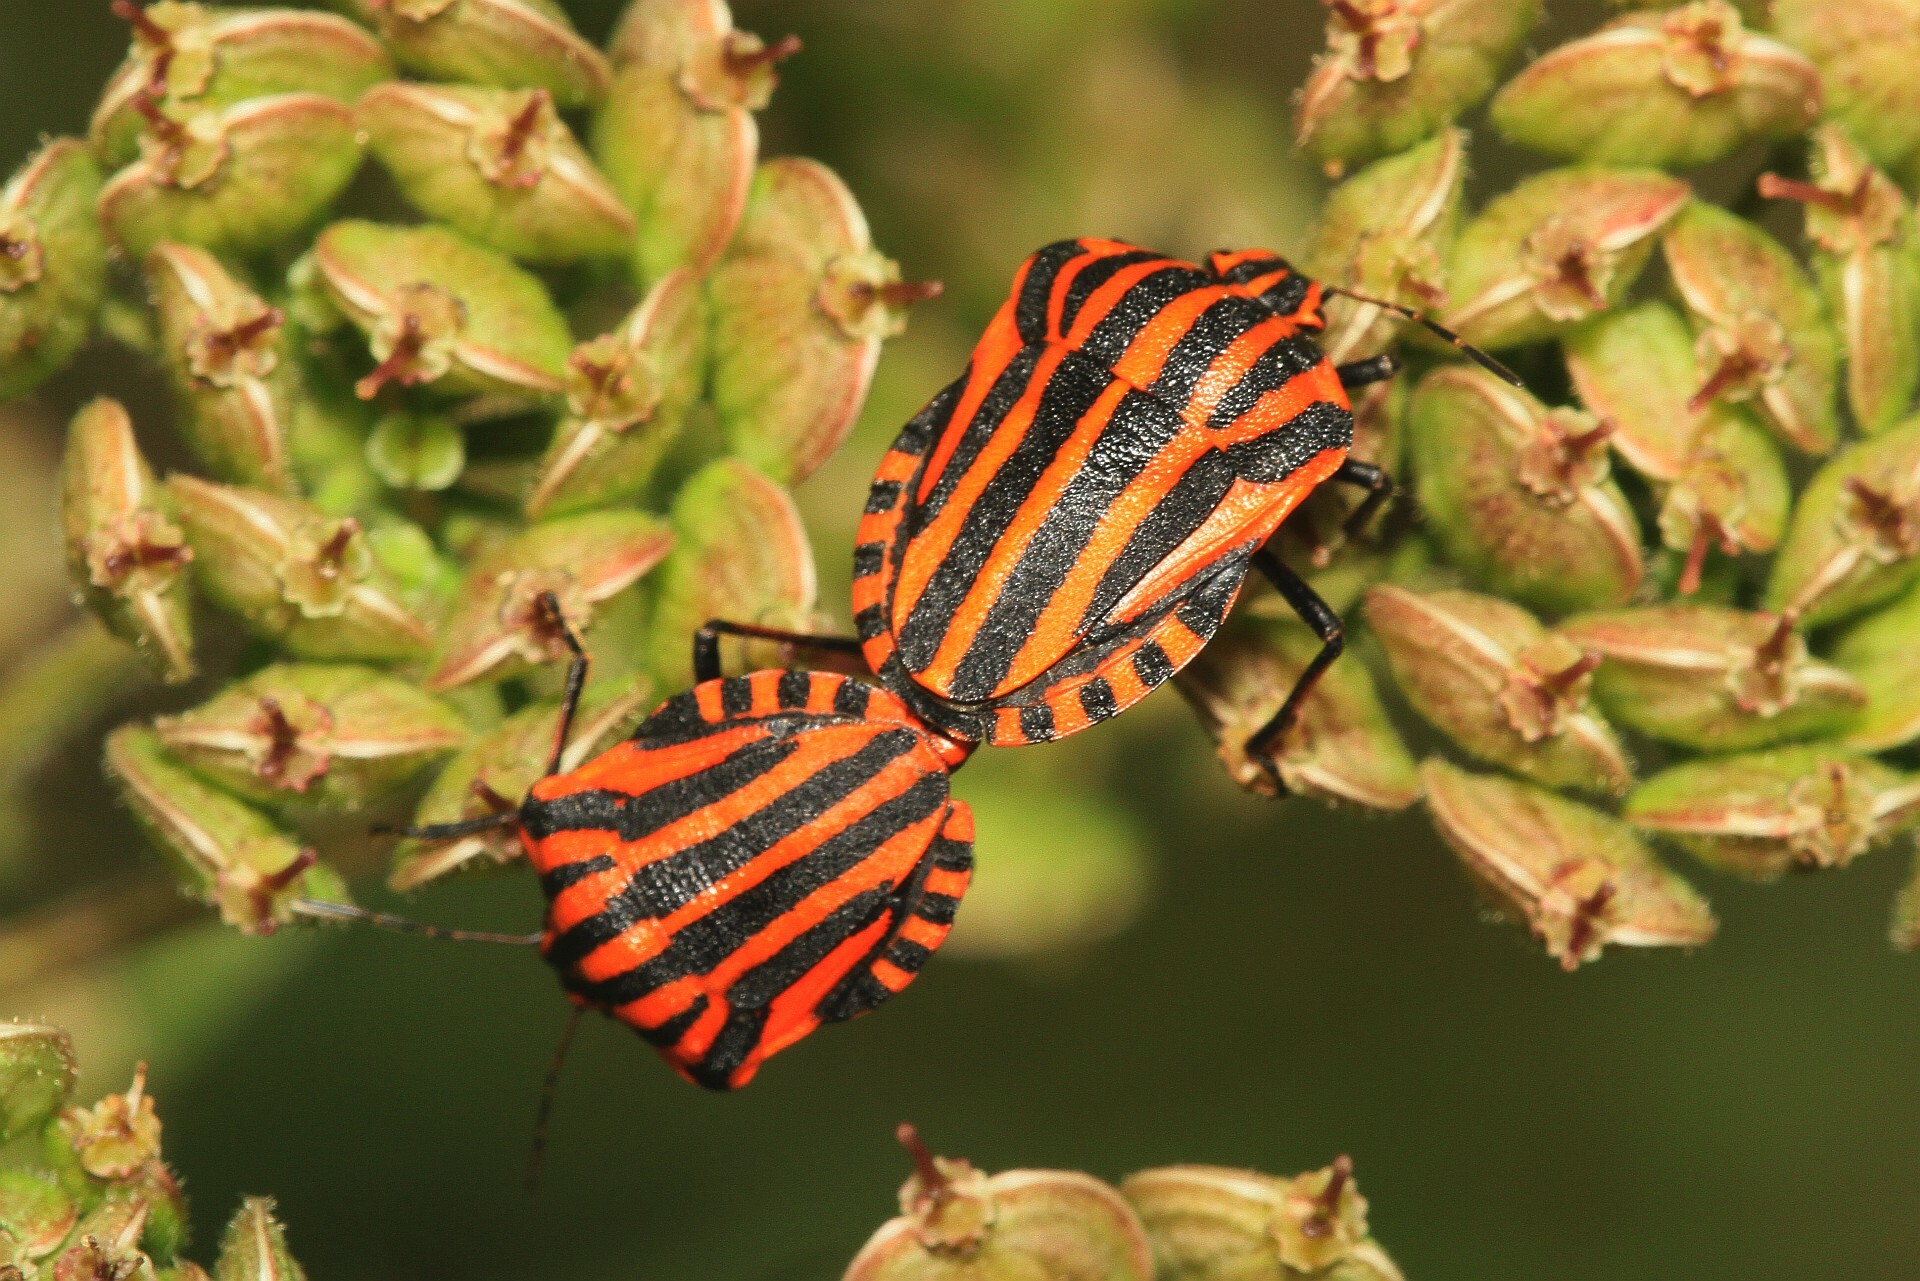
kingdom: Animalia
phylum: Arthropoda
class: Insecta
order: Hemiptera
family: Pentatomidae
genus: Graphosoma
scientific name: Graphosoma italicum
